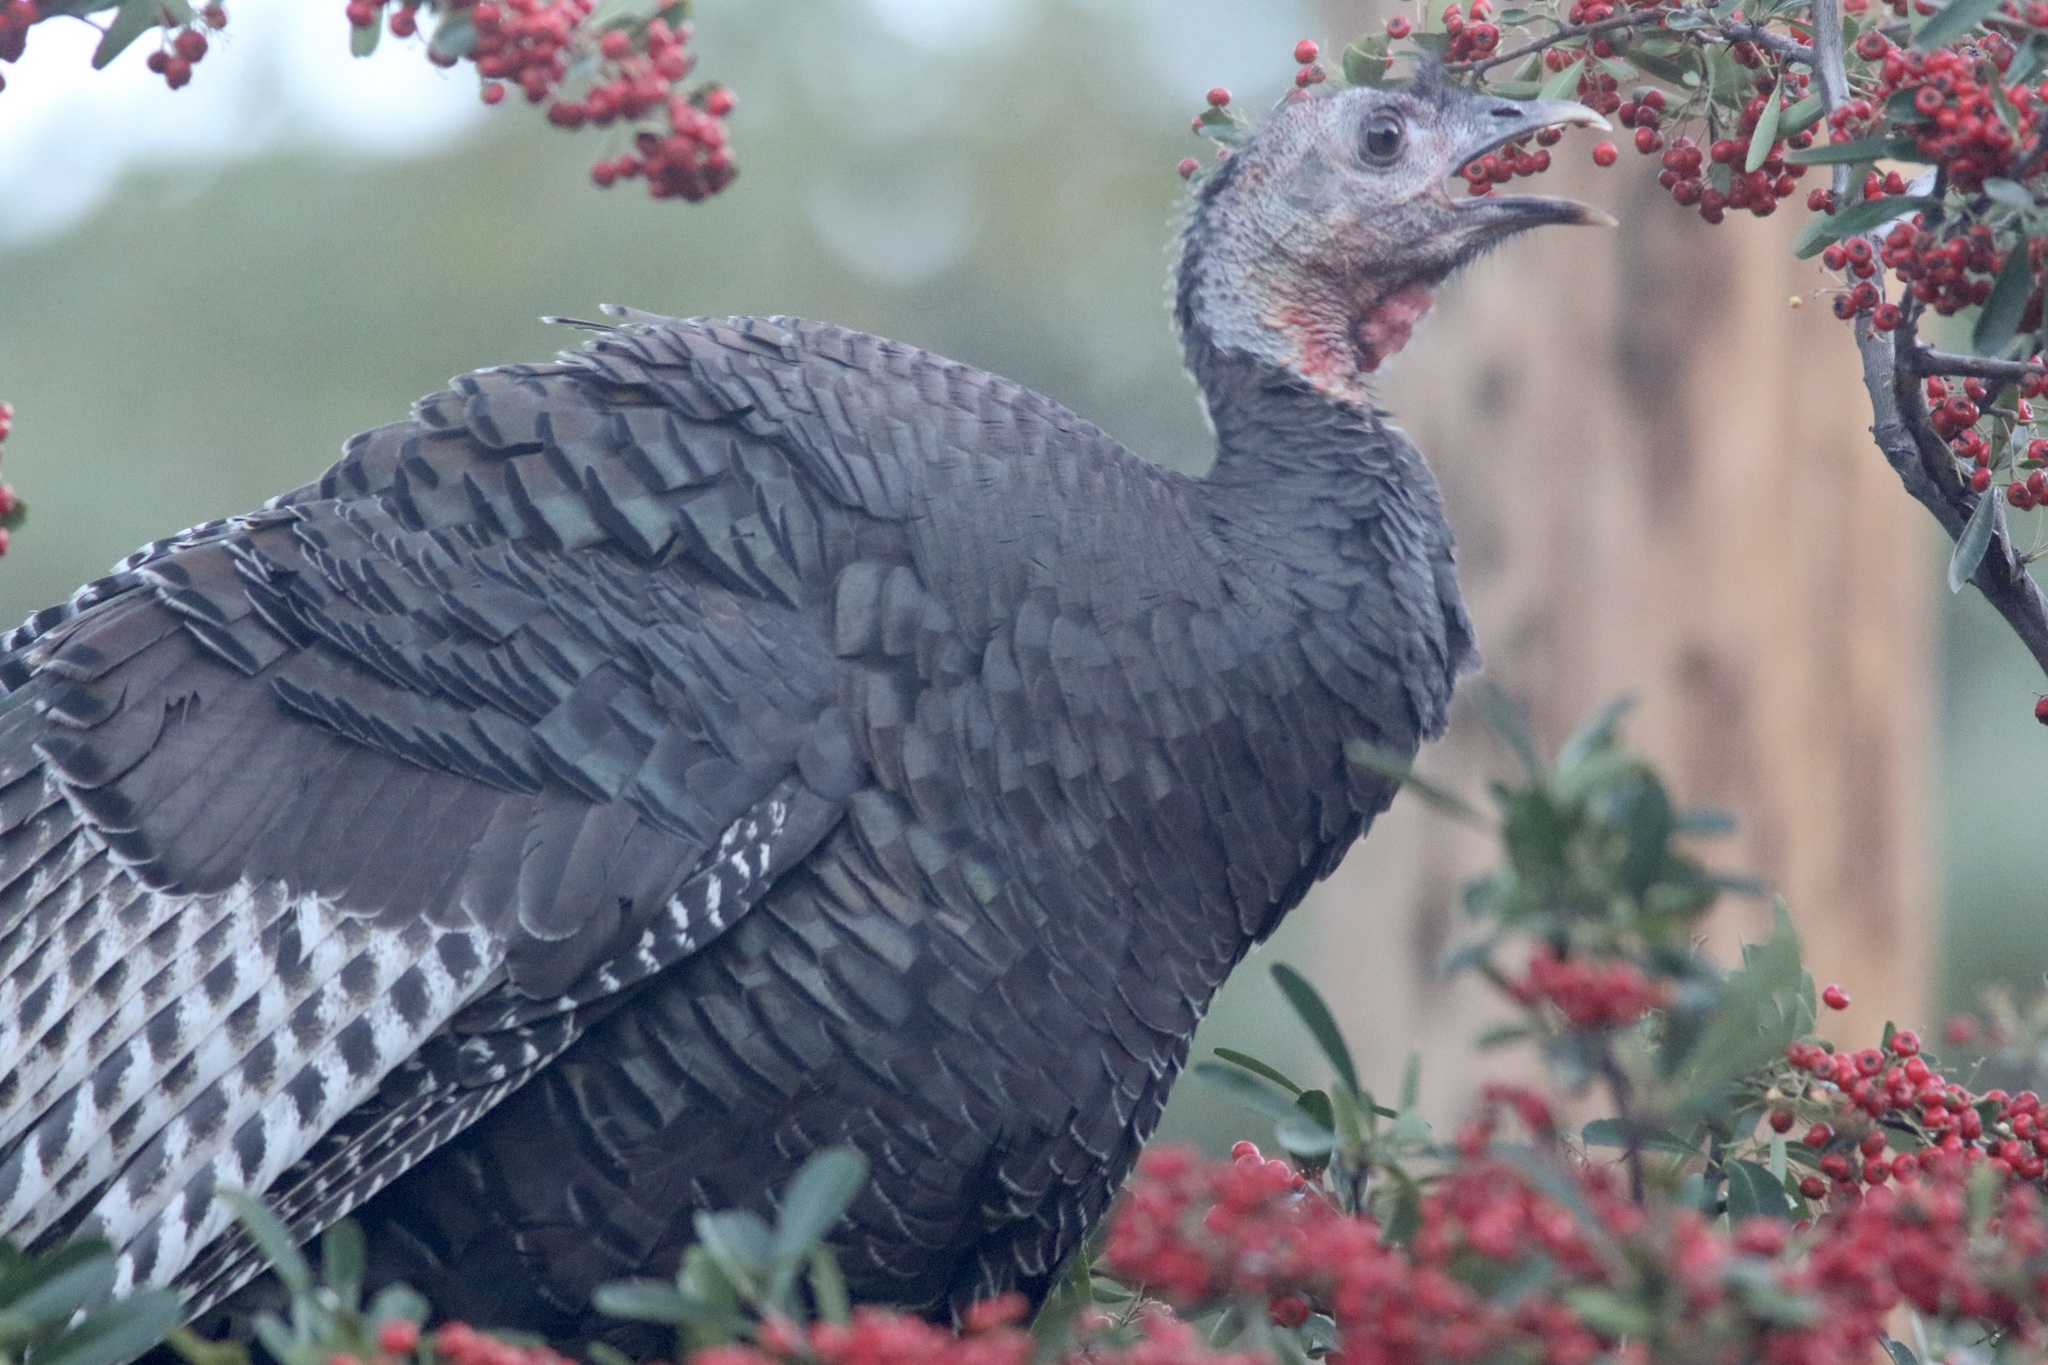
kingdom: Animalia
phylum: Chordata
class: Aves
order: Galliformes
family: Phasianidae
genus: Meleagris
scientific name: Meleagris gallopavo
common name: Wild turkey
